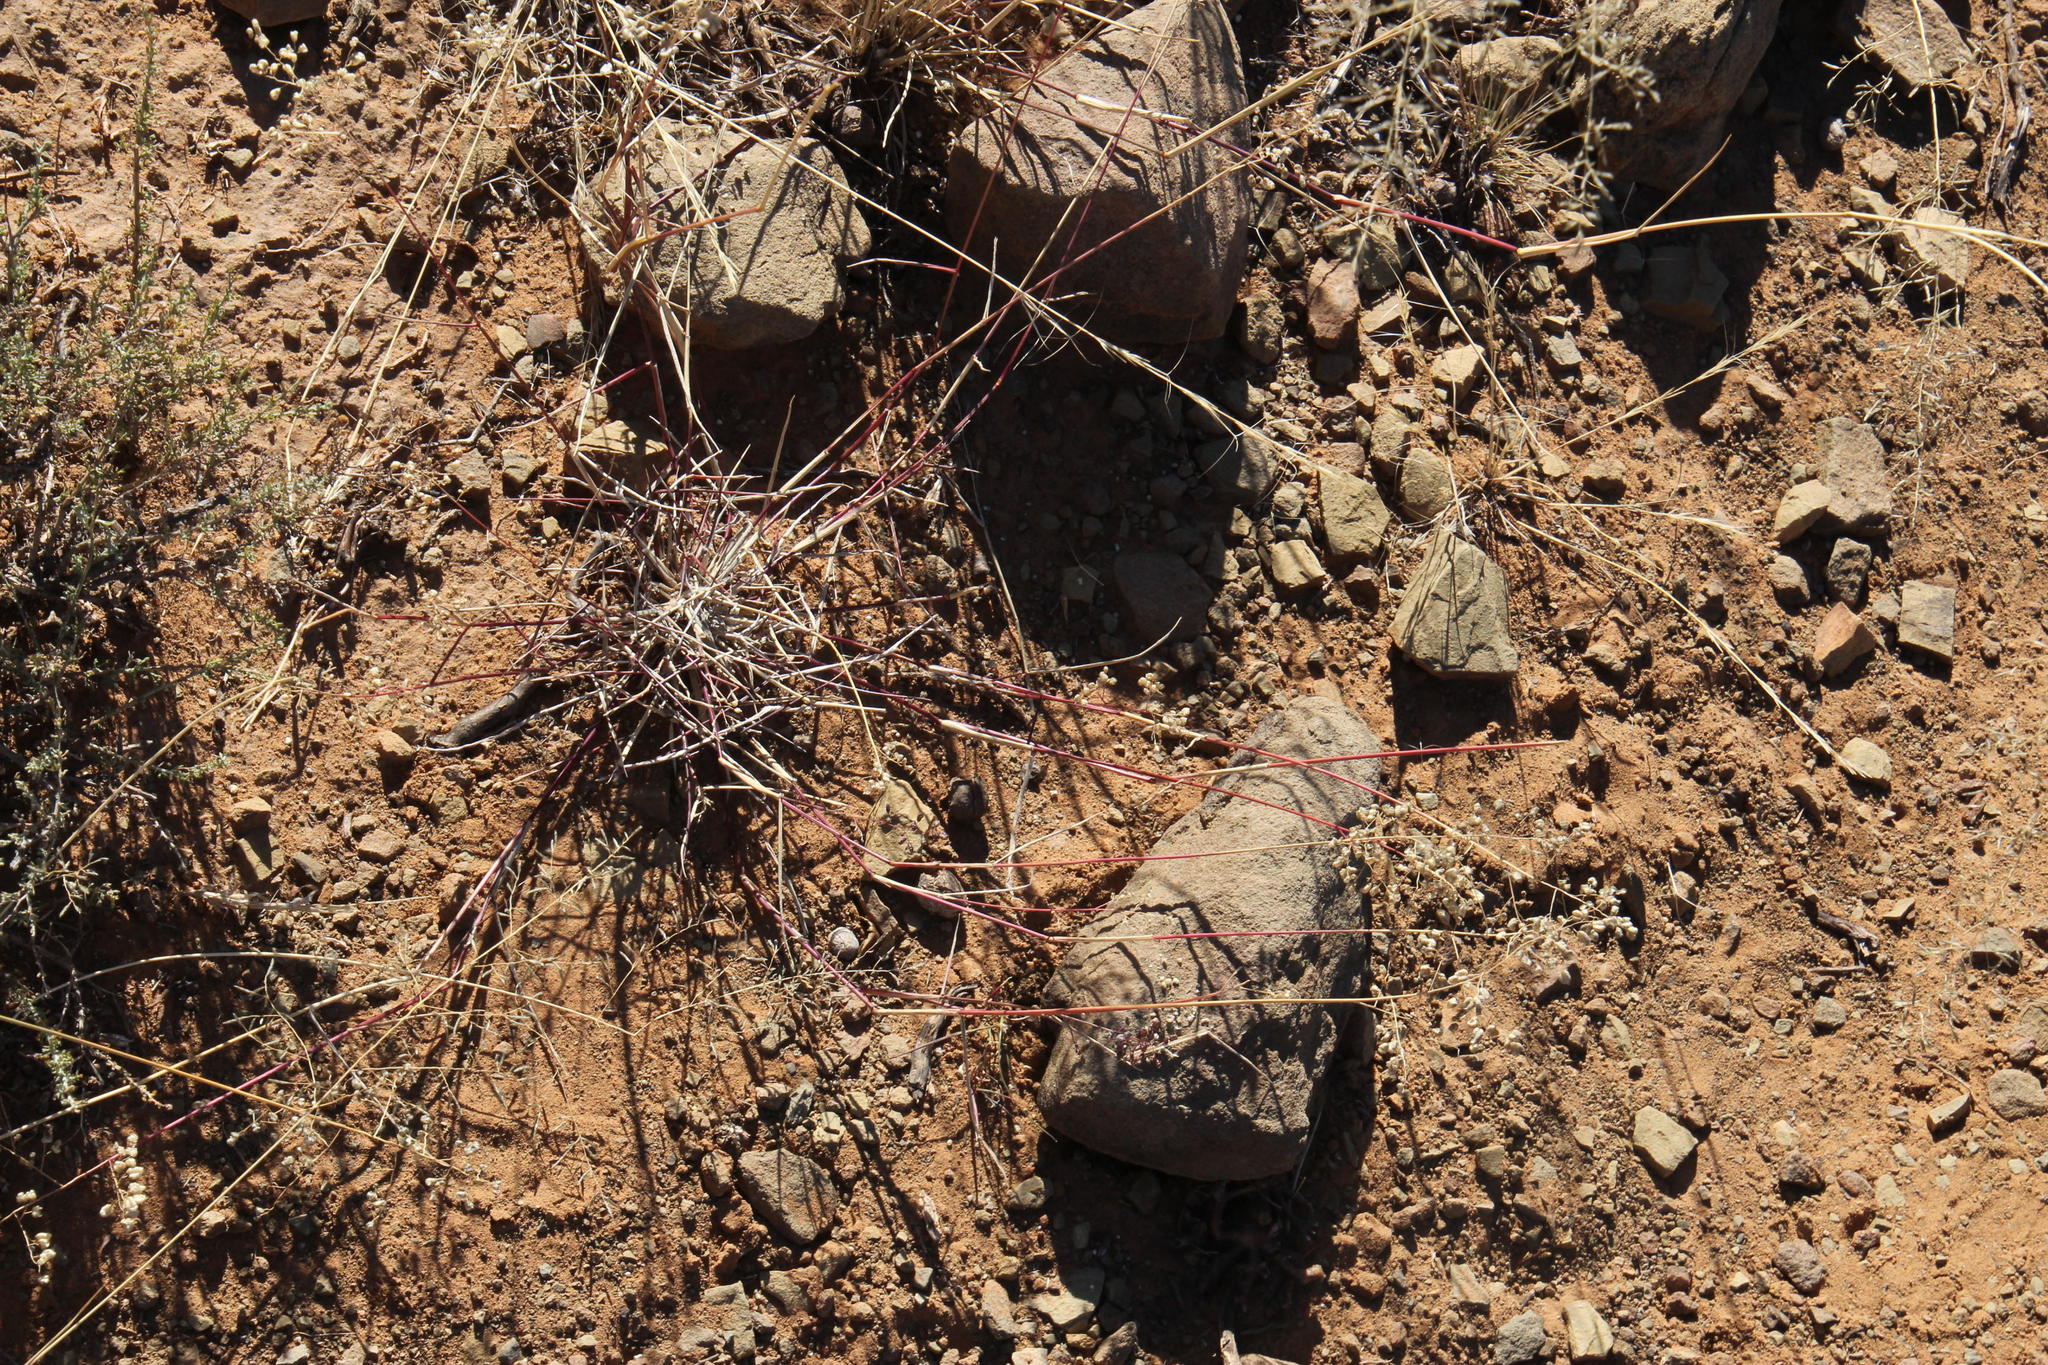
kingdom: Plantae
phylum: Tracheophyta
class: Liliopsida
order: Poales
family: Poaceae
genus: Eragrostis
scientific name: Eragrostis obtusa
